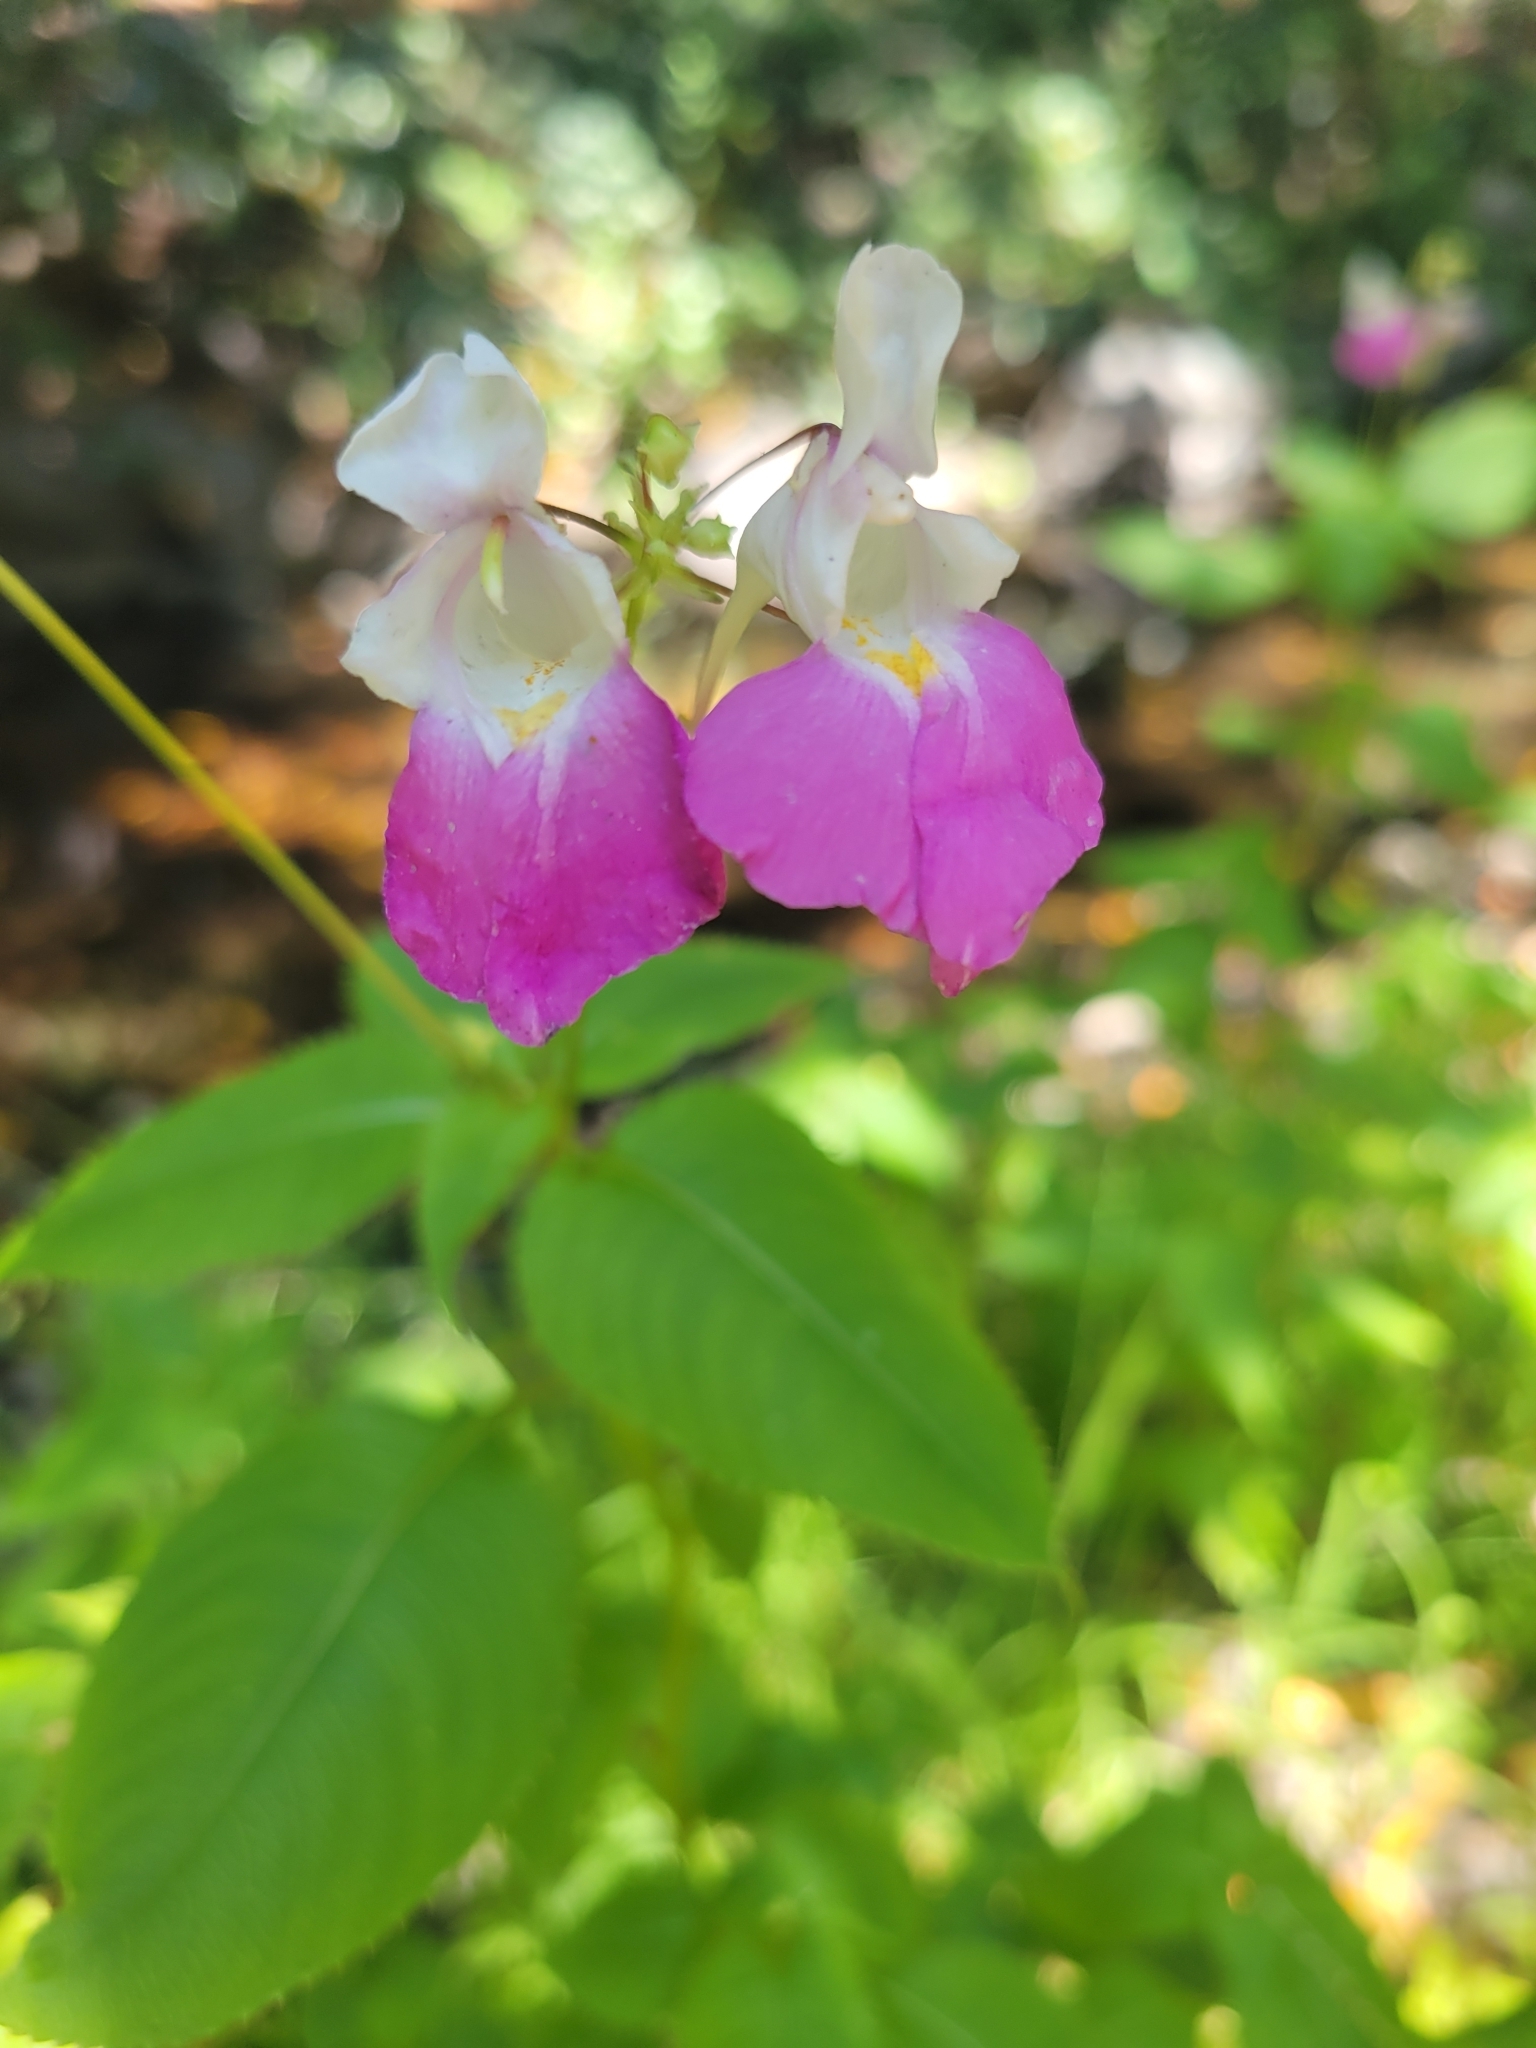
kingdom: Plantae
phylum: Tracheophyta
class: Magnoliopsida
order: Ericales
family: Balsaminaceae
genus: Impatiens
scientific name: Impatiens balfourii
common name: Balfour's touch-me-not
